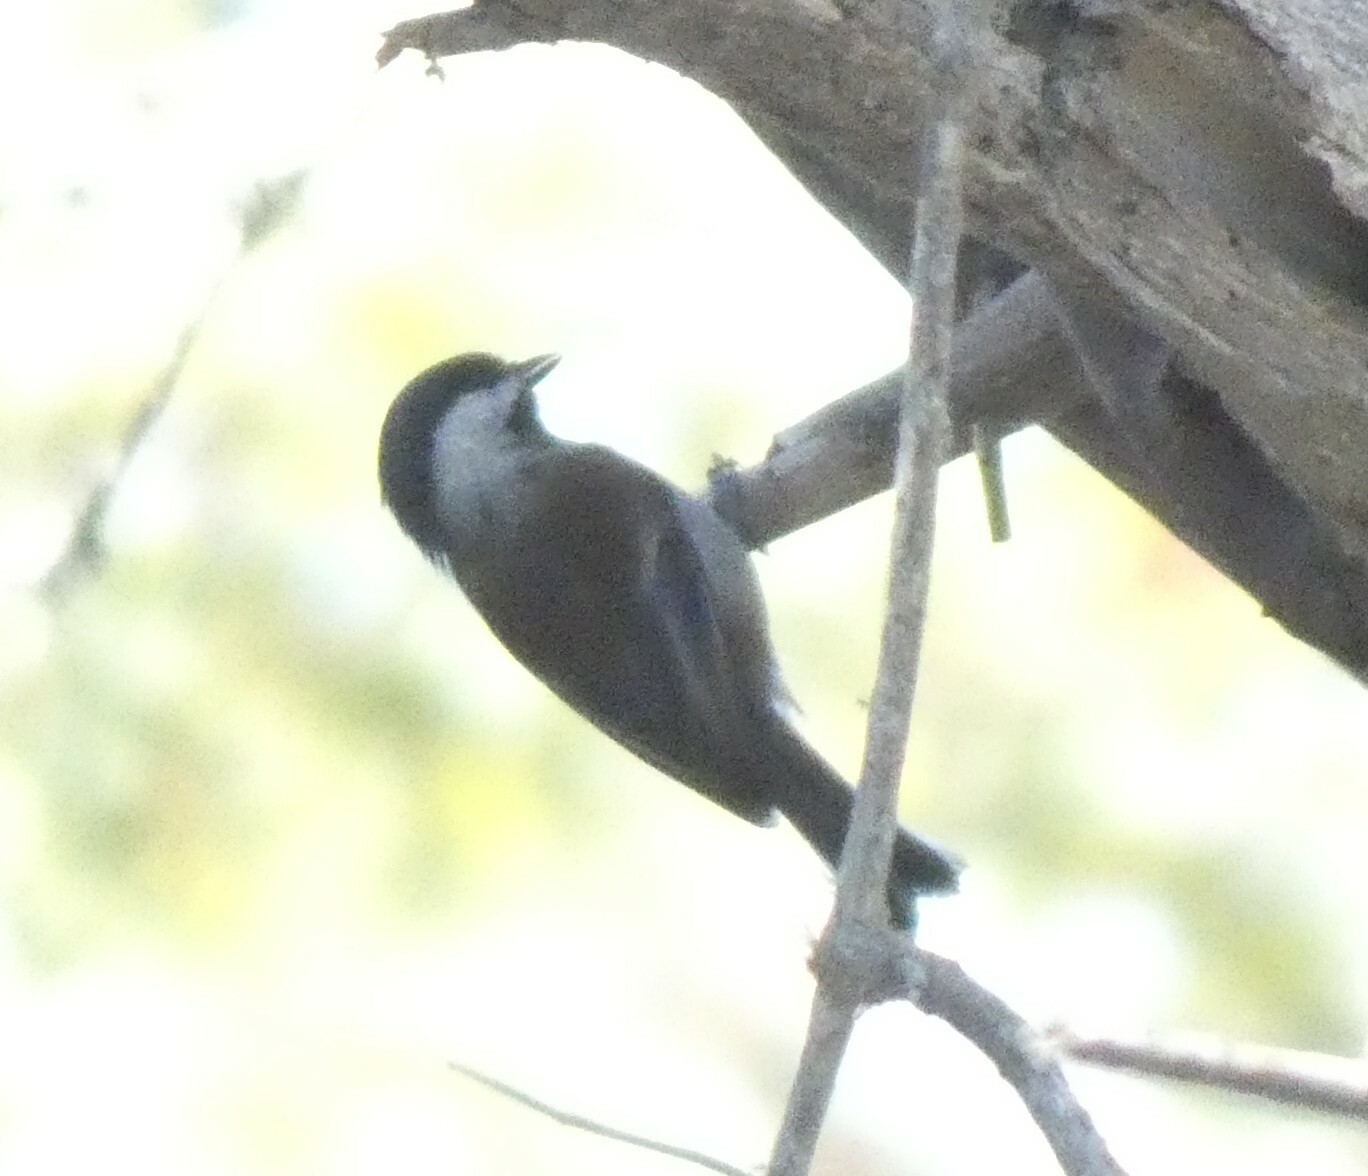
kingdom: Animalia
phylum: Chordata
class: Aves
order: Passeriformes
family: Paridae
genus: Poecile
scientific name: Poecile rufescens
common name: Chestnut-backed chickadee
